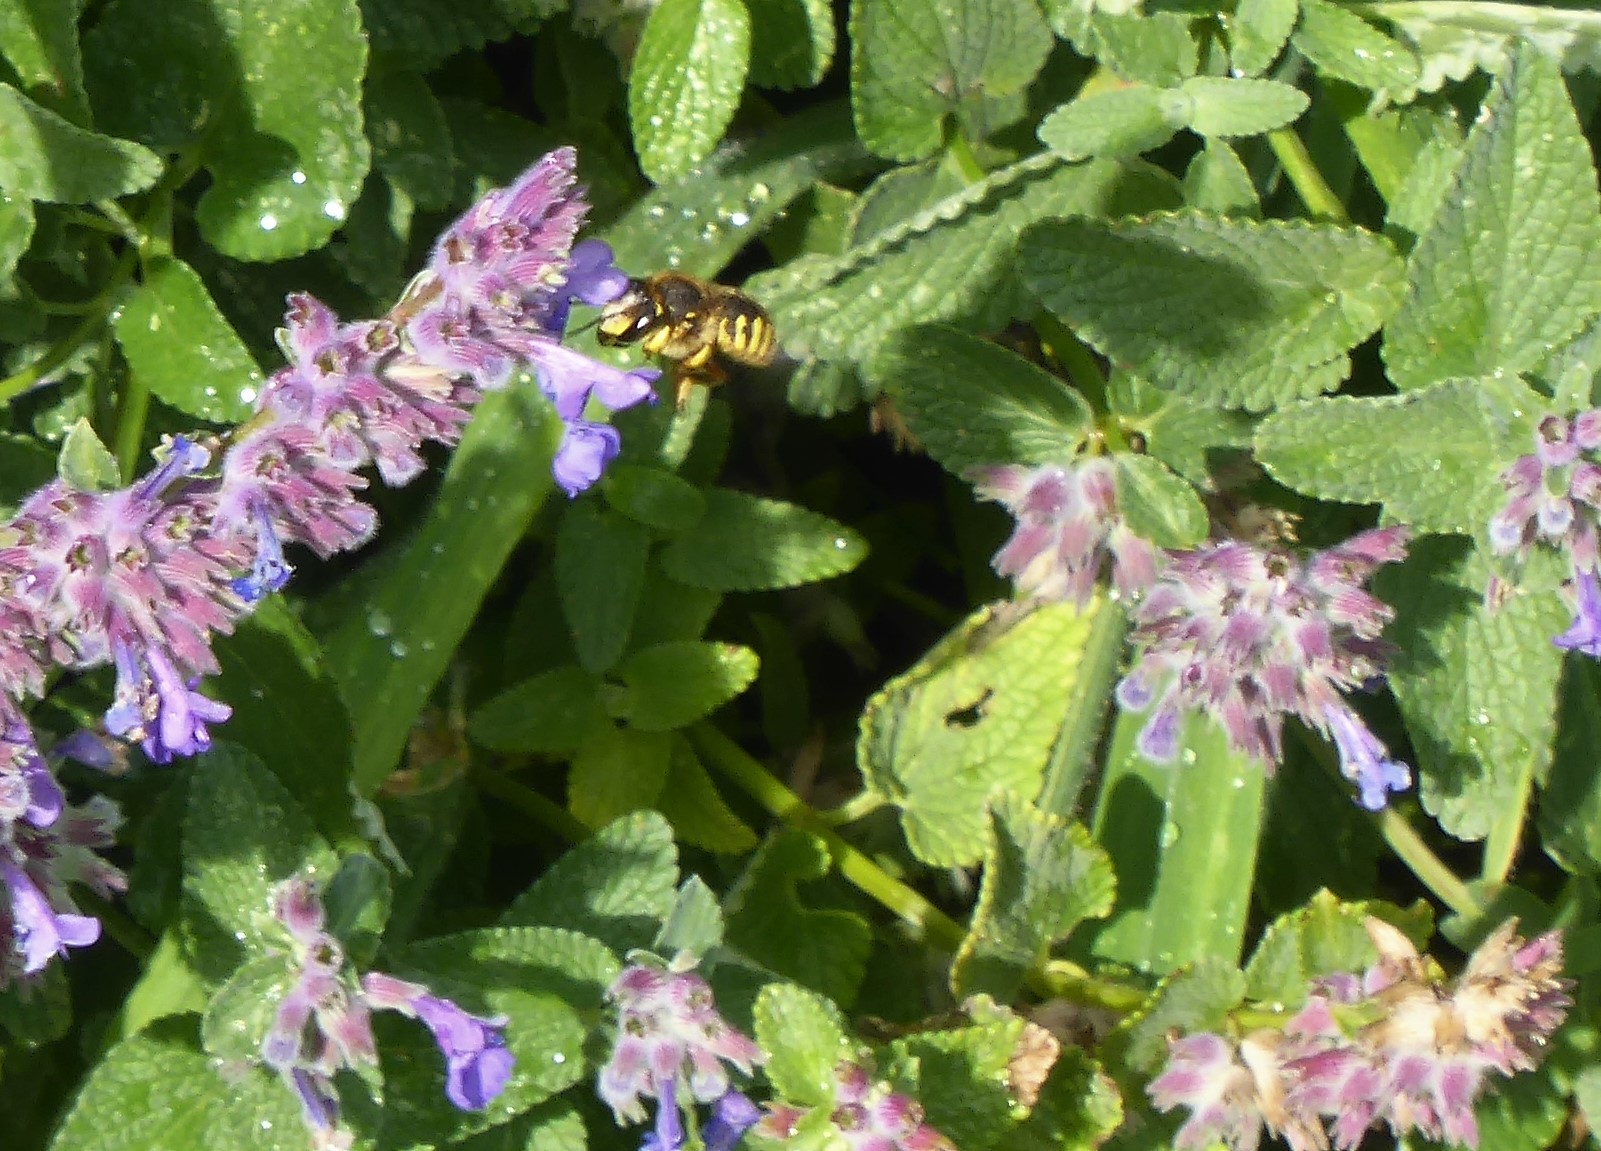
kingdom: Animalia
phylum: Arthropoda
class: Insecta
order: Hymenoptera
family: Megachilidae
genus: Anthidium
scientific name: Anthidium manicatum
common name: Wool carder bee
